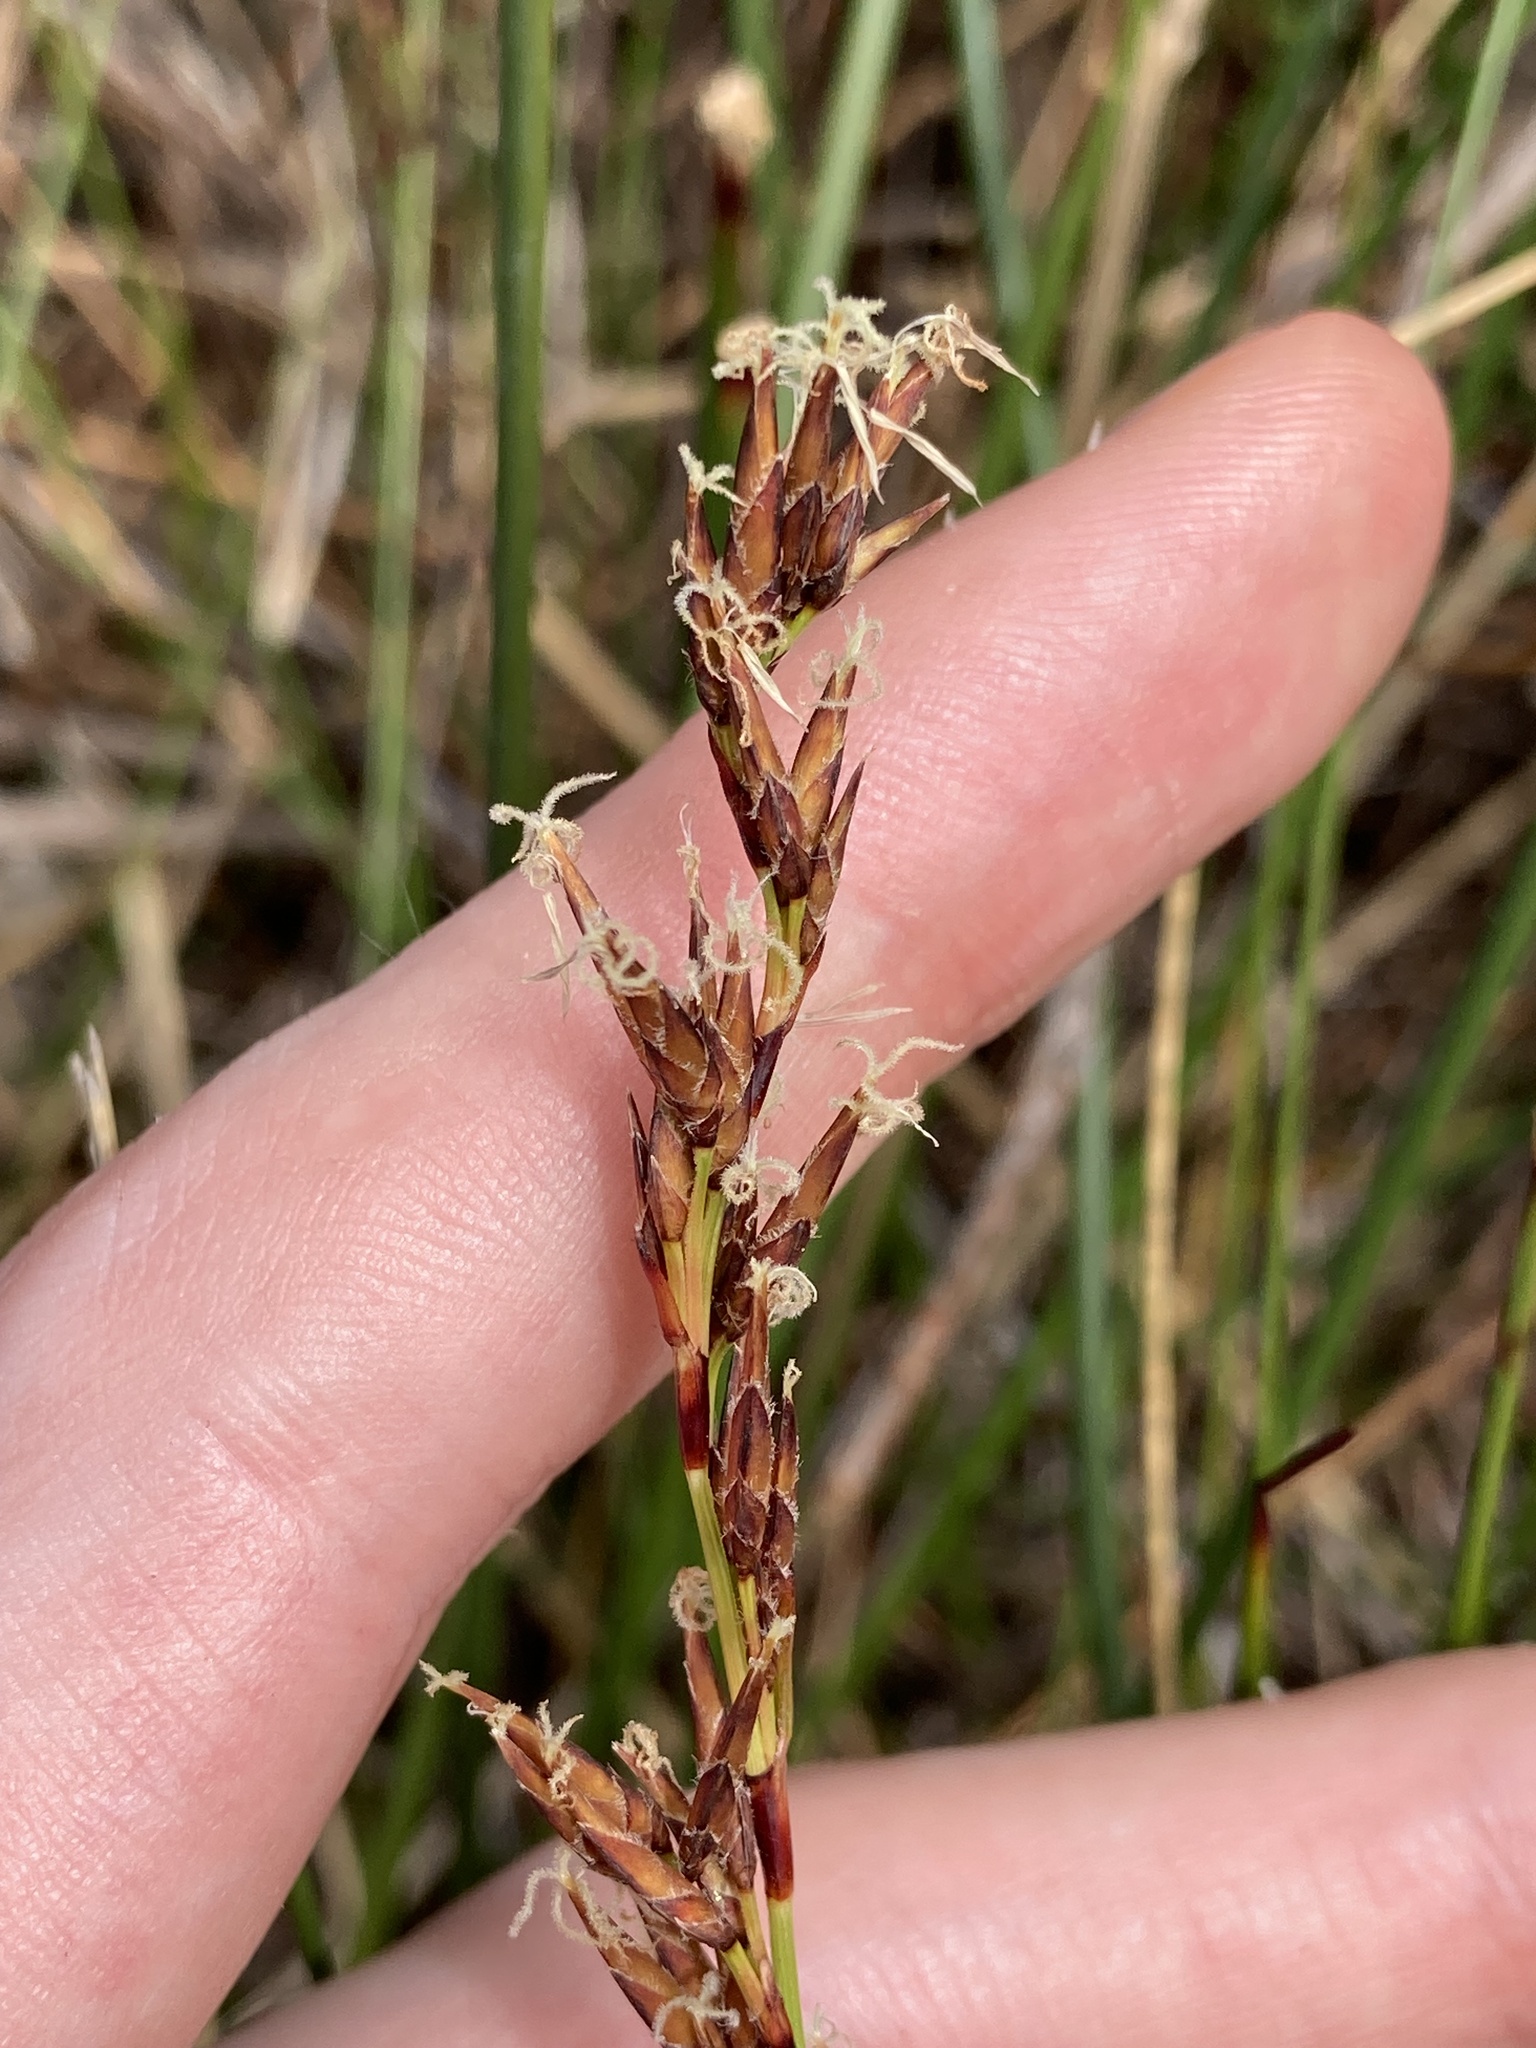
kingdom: Plantae
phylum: Tracheophyta
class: Liliopsida
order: Poales
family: Cyperaceae
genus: Schoenus
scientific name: Schoenus brevifolius
